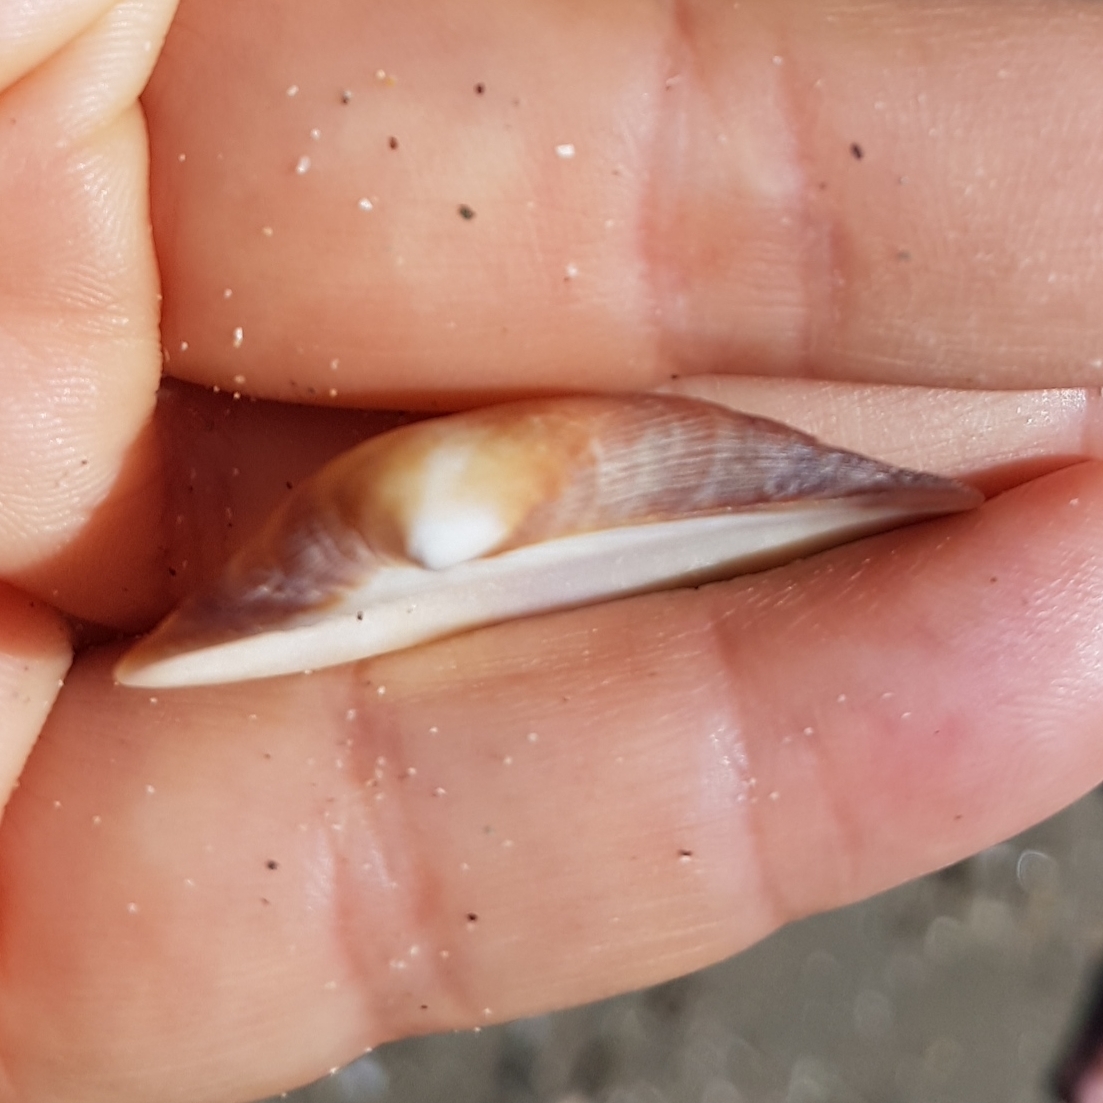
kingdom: Animalia
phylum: Mollusca
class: Bivalvia
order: Arcida
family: Arcidae
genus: Barbatia
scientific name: Barbatia barbata
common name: Bearded ark
